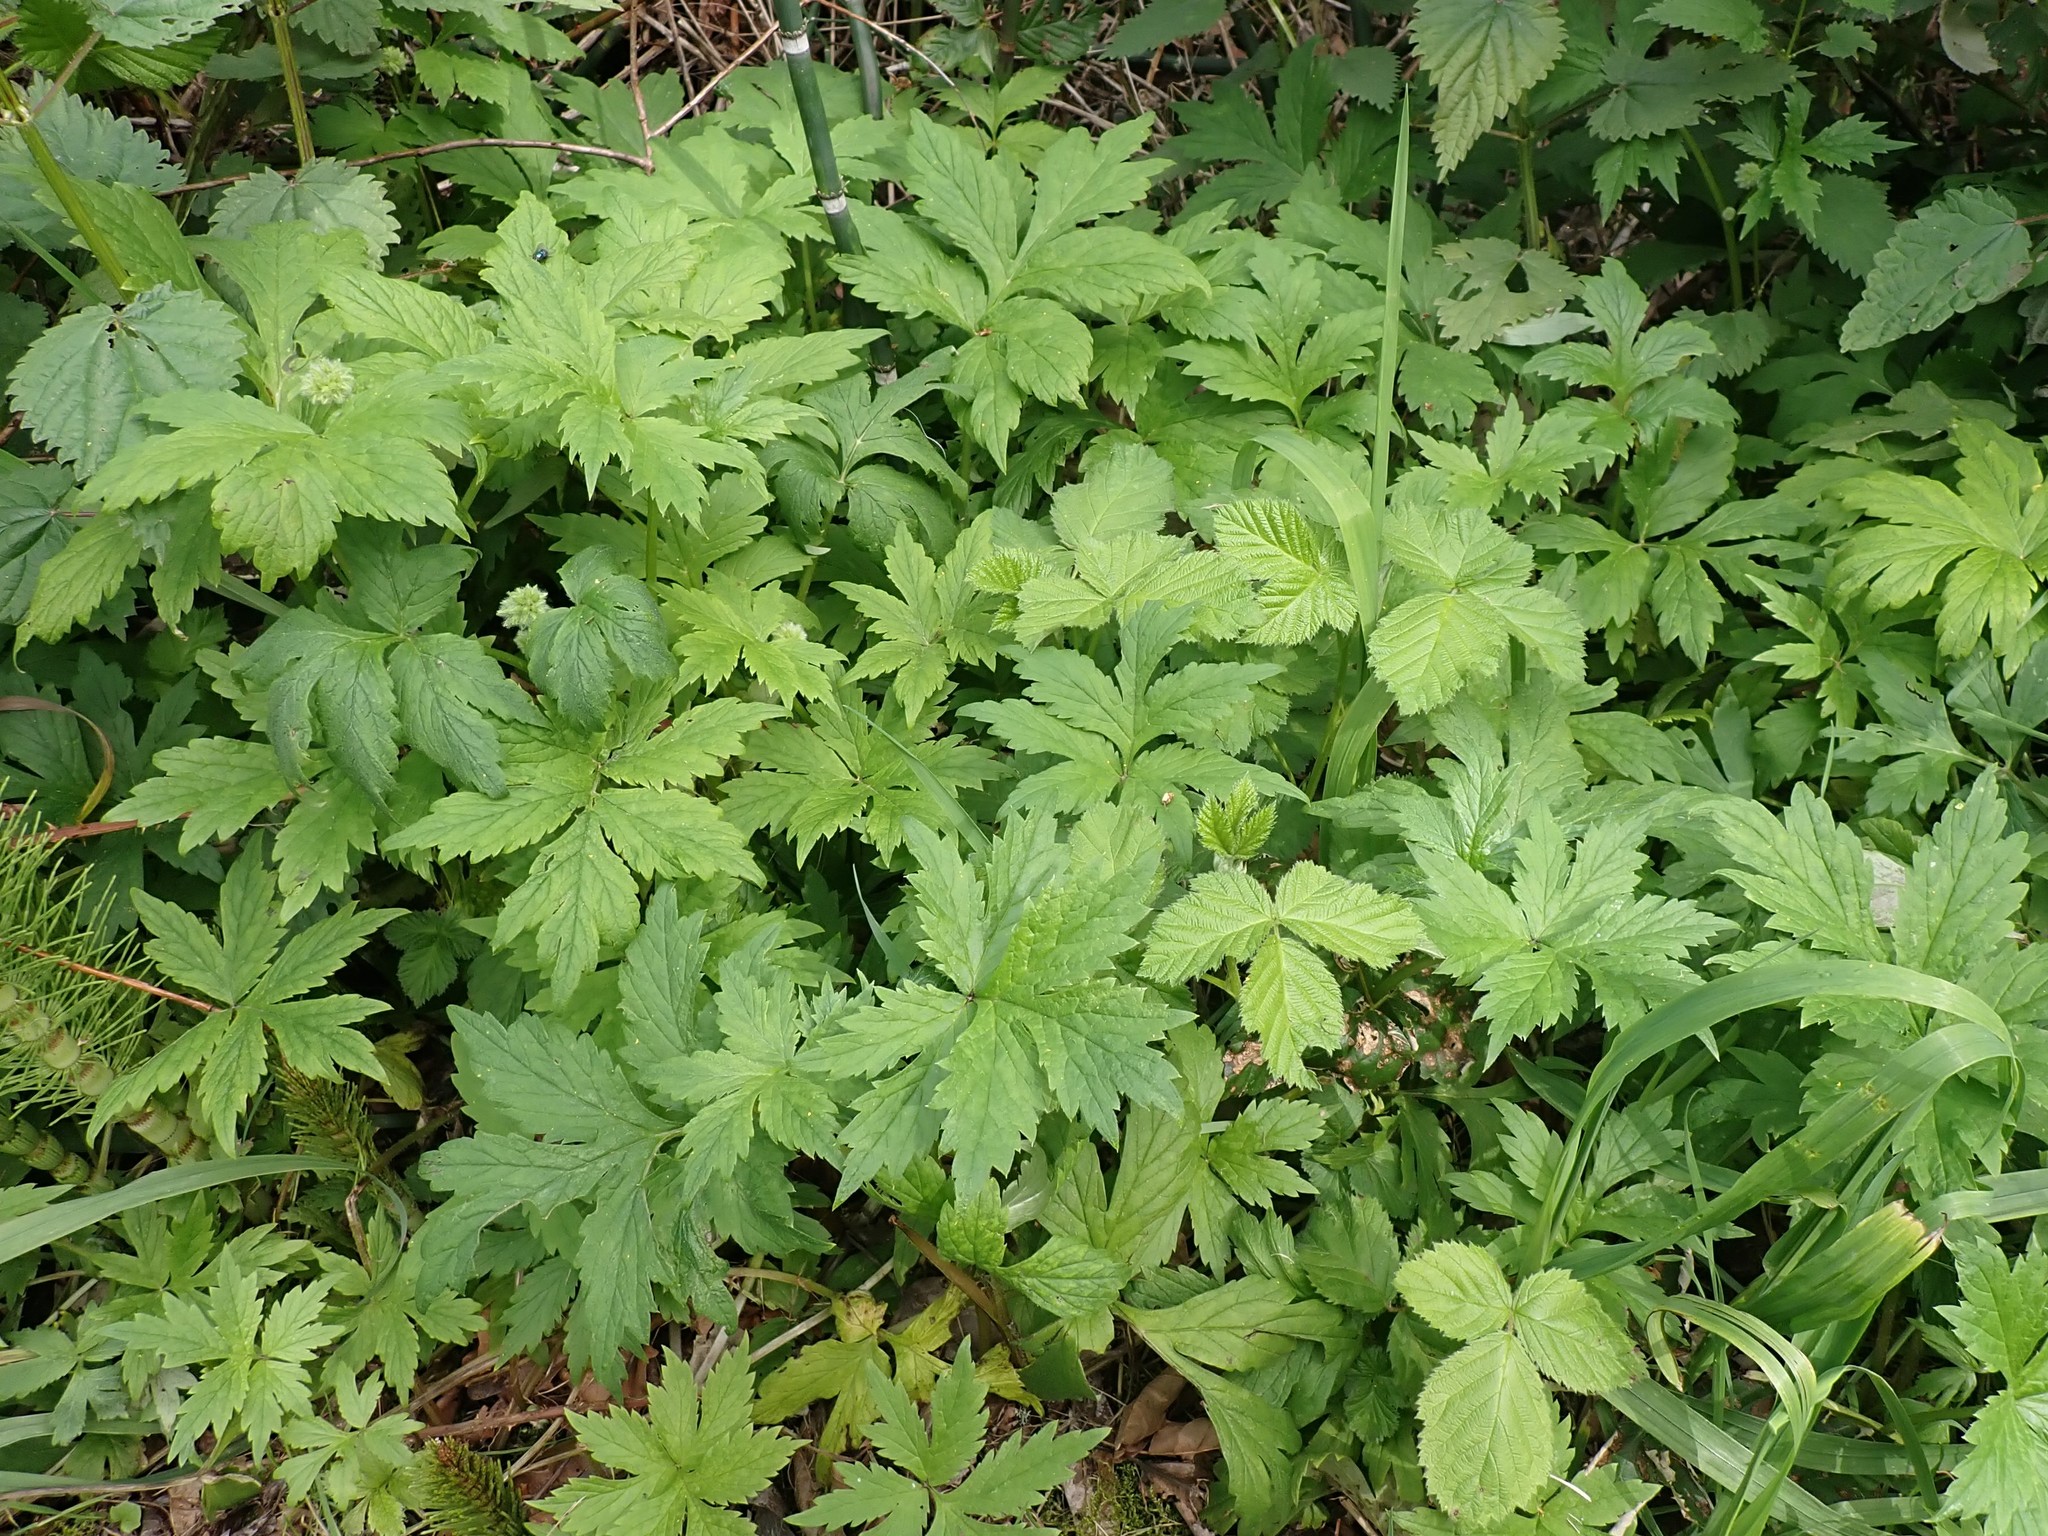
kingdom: Plantae
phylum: Tracheophyta
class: Magnoliopsida
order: Boraginales
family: Hydrophyllaceae
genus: Hydrophyllum
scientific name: Hydrophyllum tenuipes
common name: Pacific waterleaf
